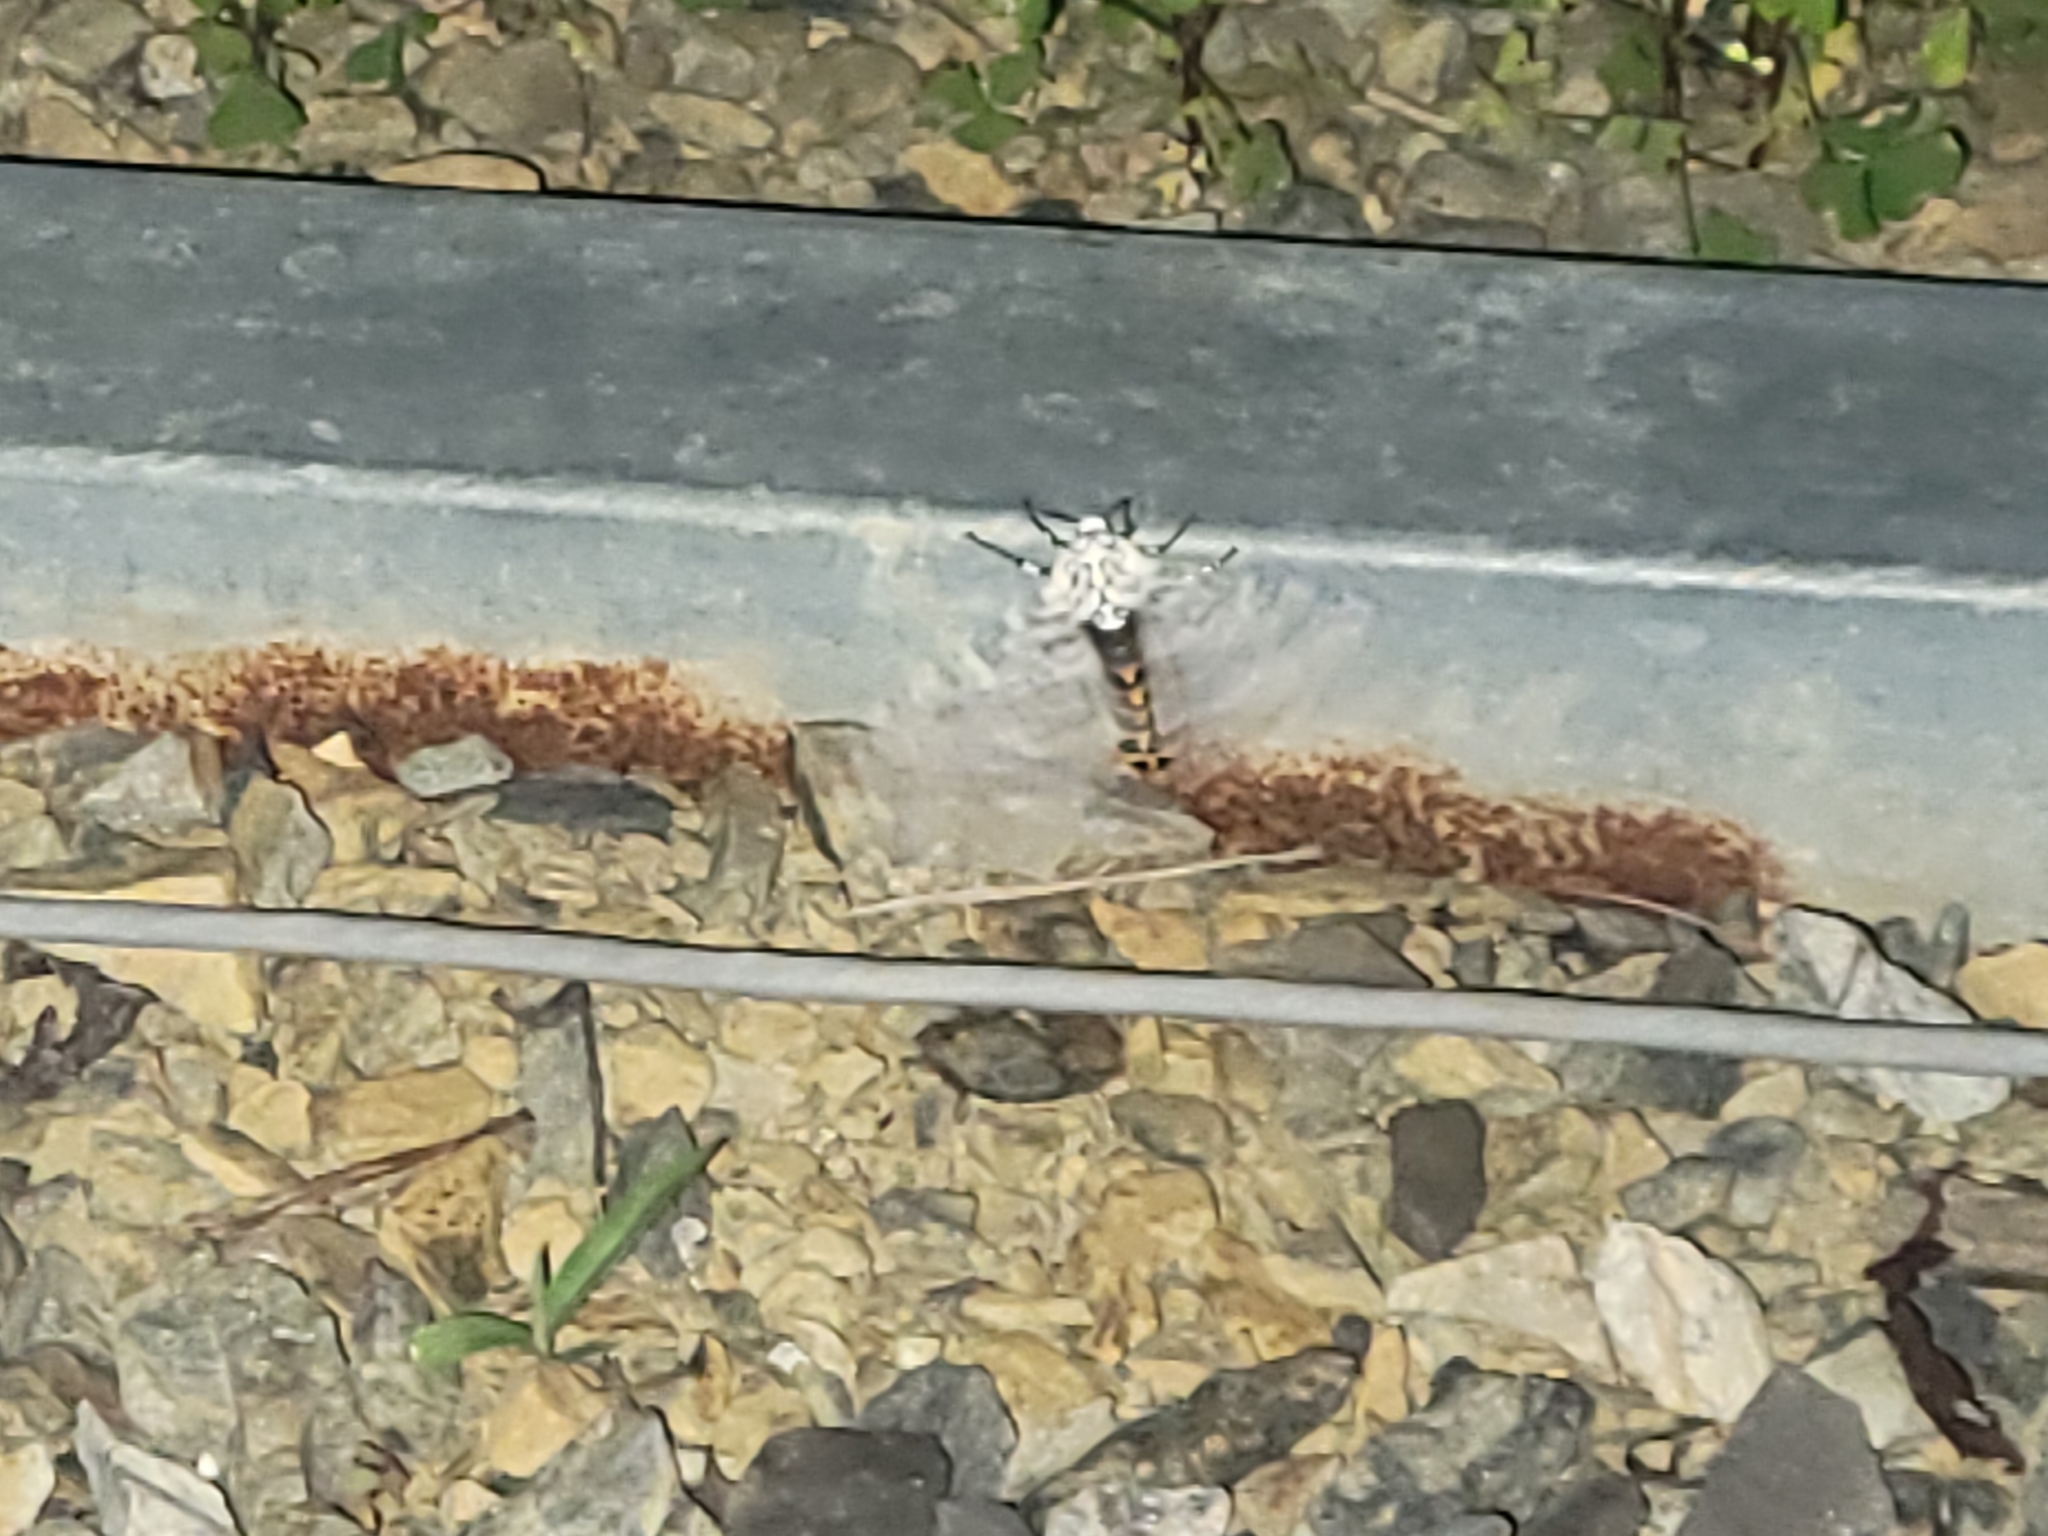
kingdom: Animalia
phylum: Arthropoda
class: Insecta
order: Lepidoptera
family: Erebidae
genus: Hypercompe
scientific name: Hypercompe scribonia
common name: Giant leopard moth
